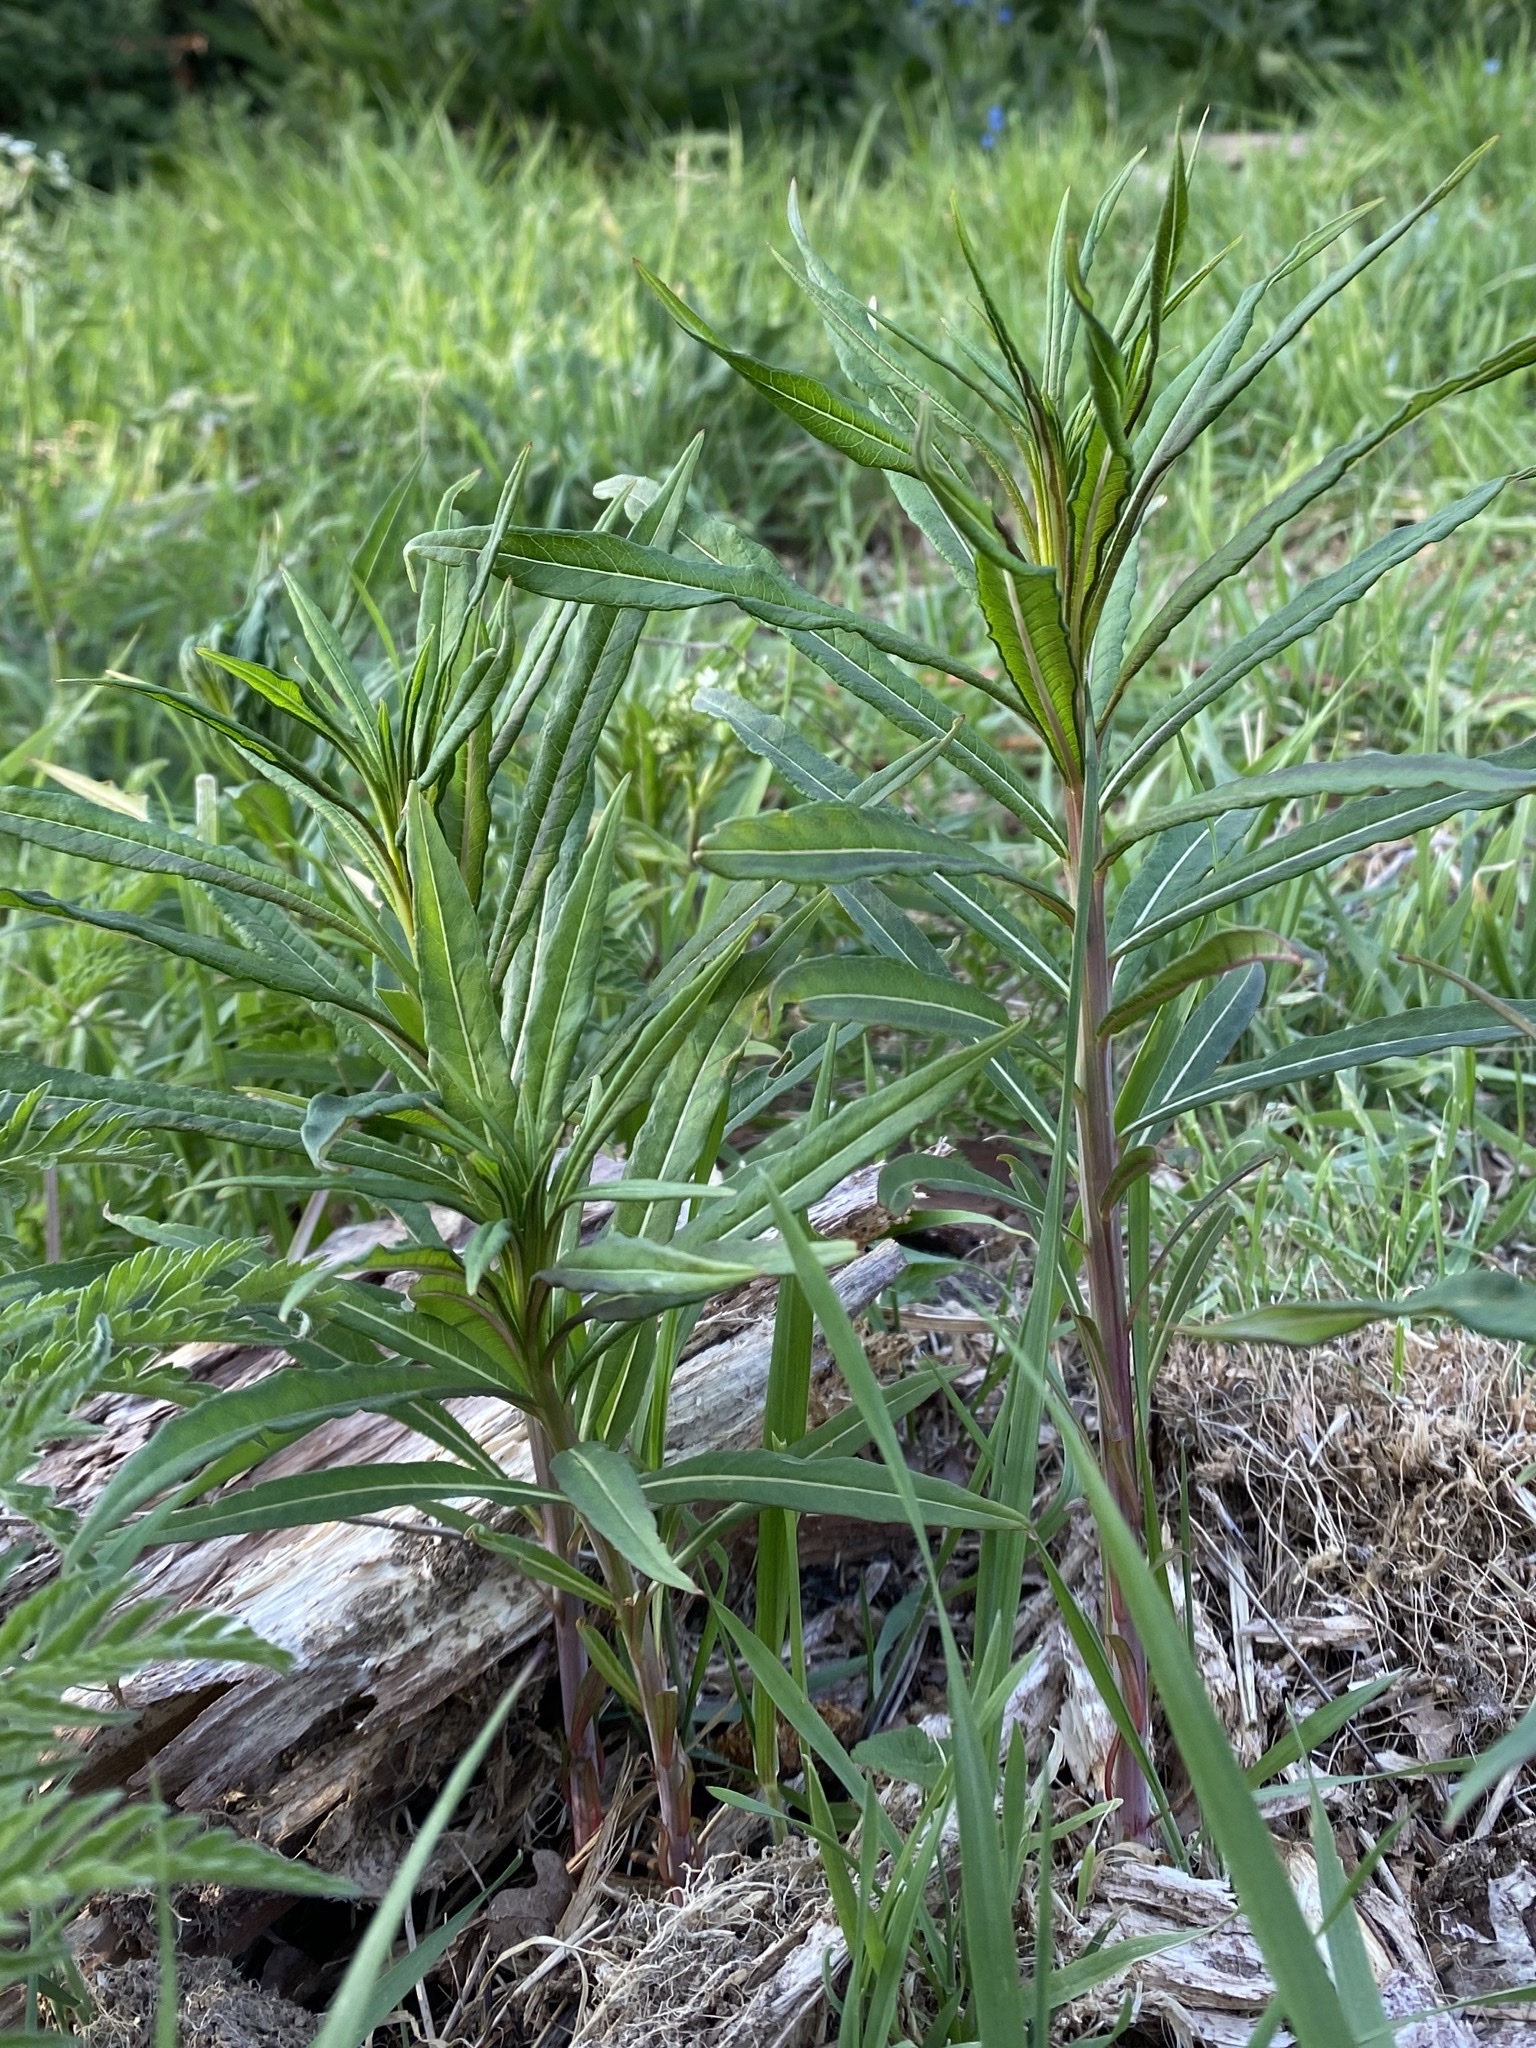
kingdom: Plantae
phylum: Tracheophyta
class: Magnoliopsida
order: Myrtales
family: Onagraceae
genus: Chamaenerion
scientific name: Chamaenerion angustifolium
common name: Fireweed
